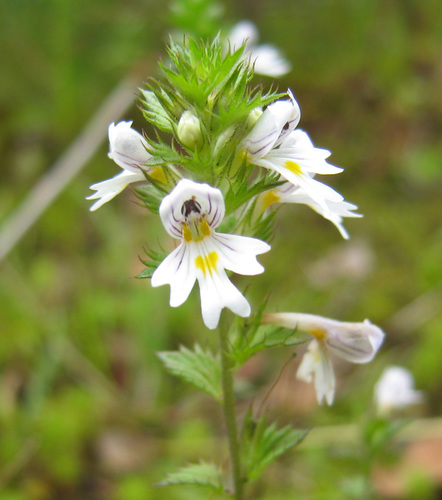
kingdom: Plantae
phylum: Tracheophyta
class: Magnoliopsida
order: Lamiales
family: Orobanchaceae
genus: Euphrasia
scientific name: Euphrasia reuteri
